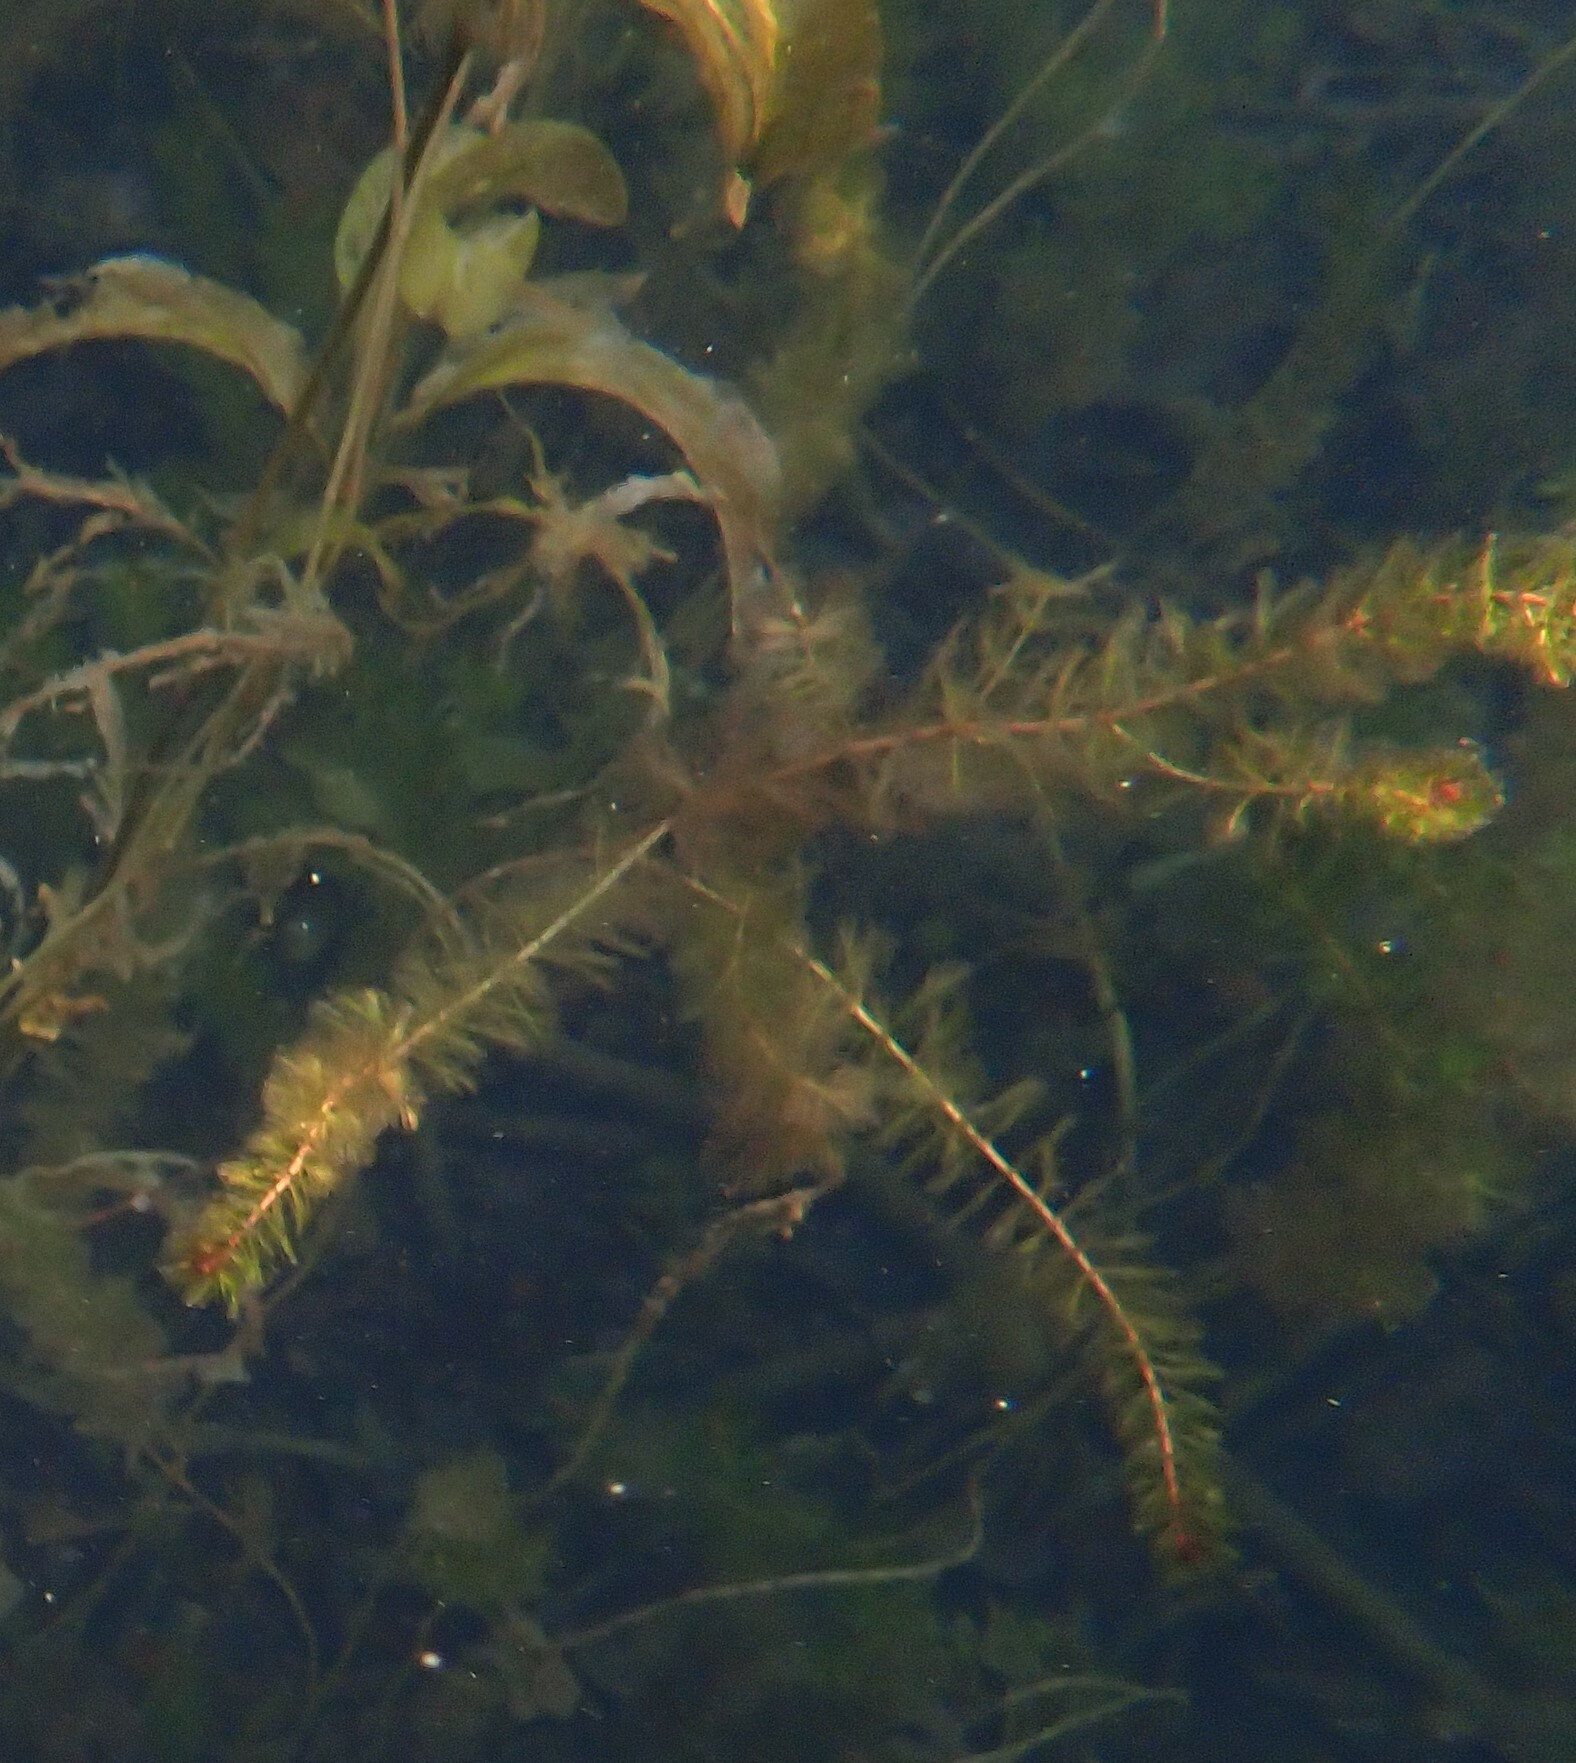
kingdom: Plantae
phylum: Tracheophyta
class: Magnoliopsida
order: Saxifragales
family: Haloragaceae
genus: Myriophyllum
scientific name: Myriophyllum spicatum
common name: Spiked water-milfoil
